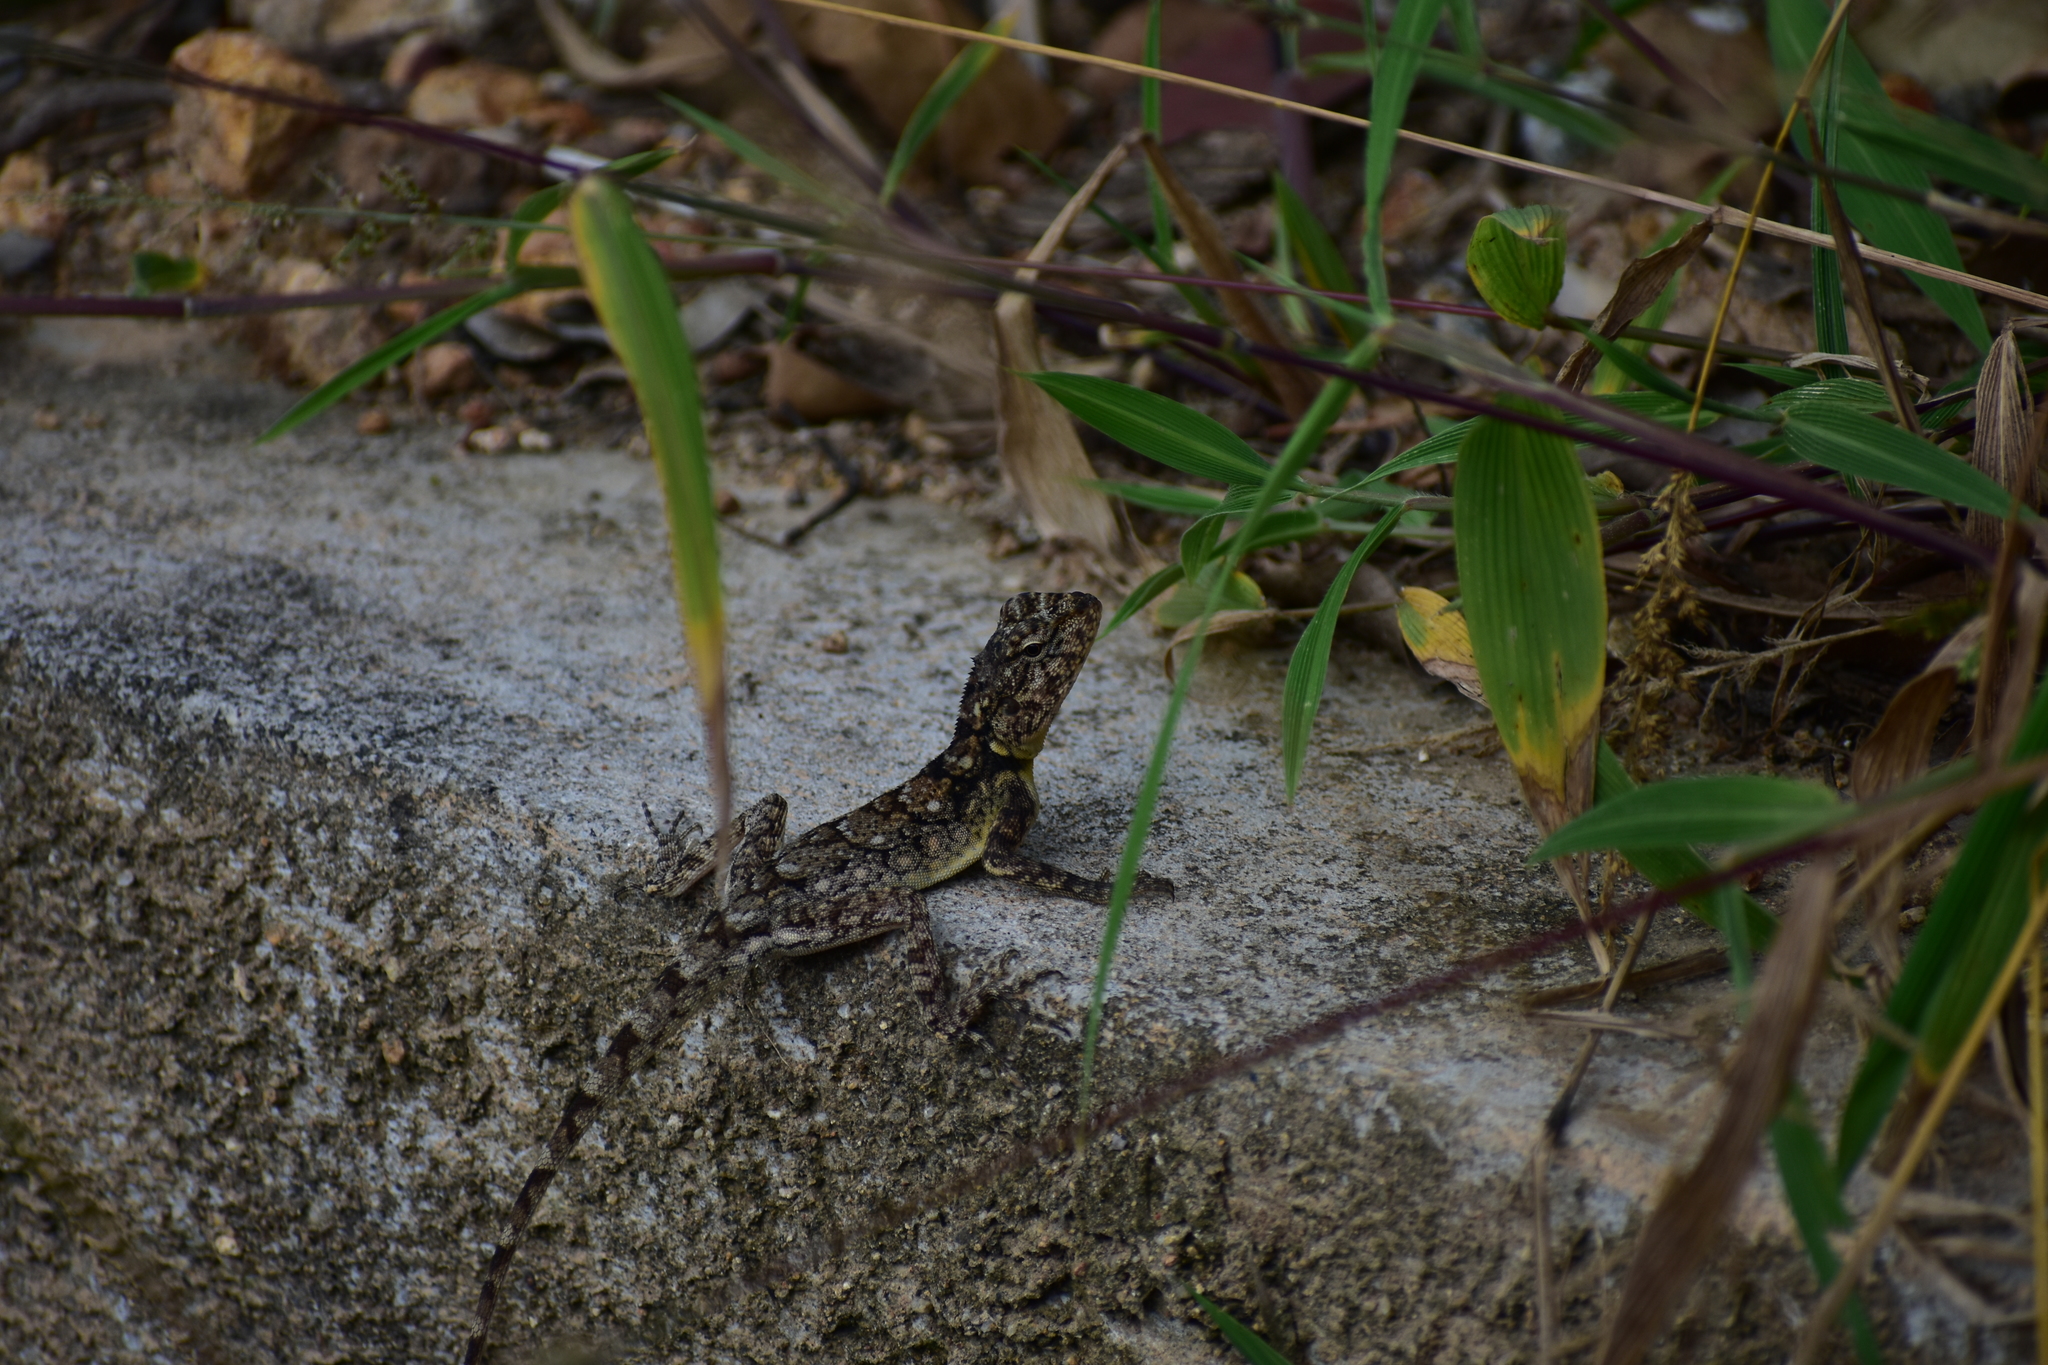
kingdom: Animalia
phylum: Chordata
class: Squamata
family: Agamidae
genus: Psammophilus
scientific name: Psammophilus dorsalis
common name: South indian rock agama
